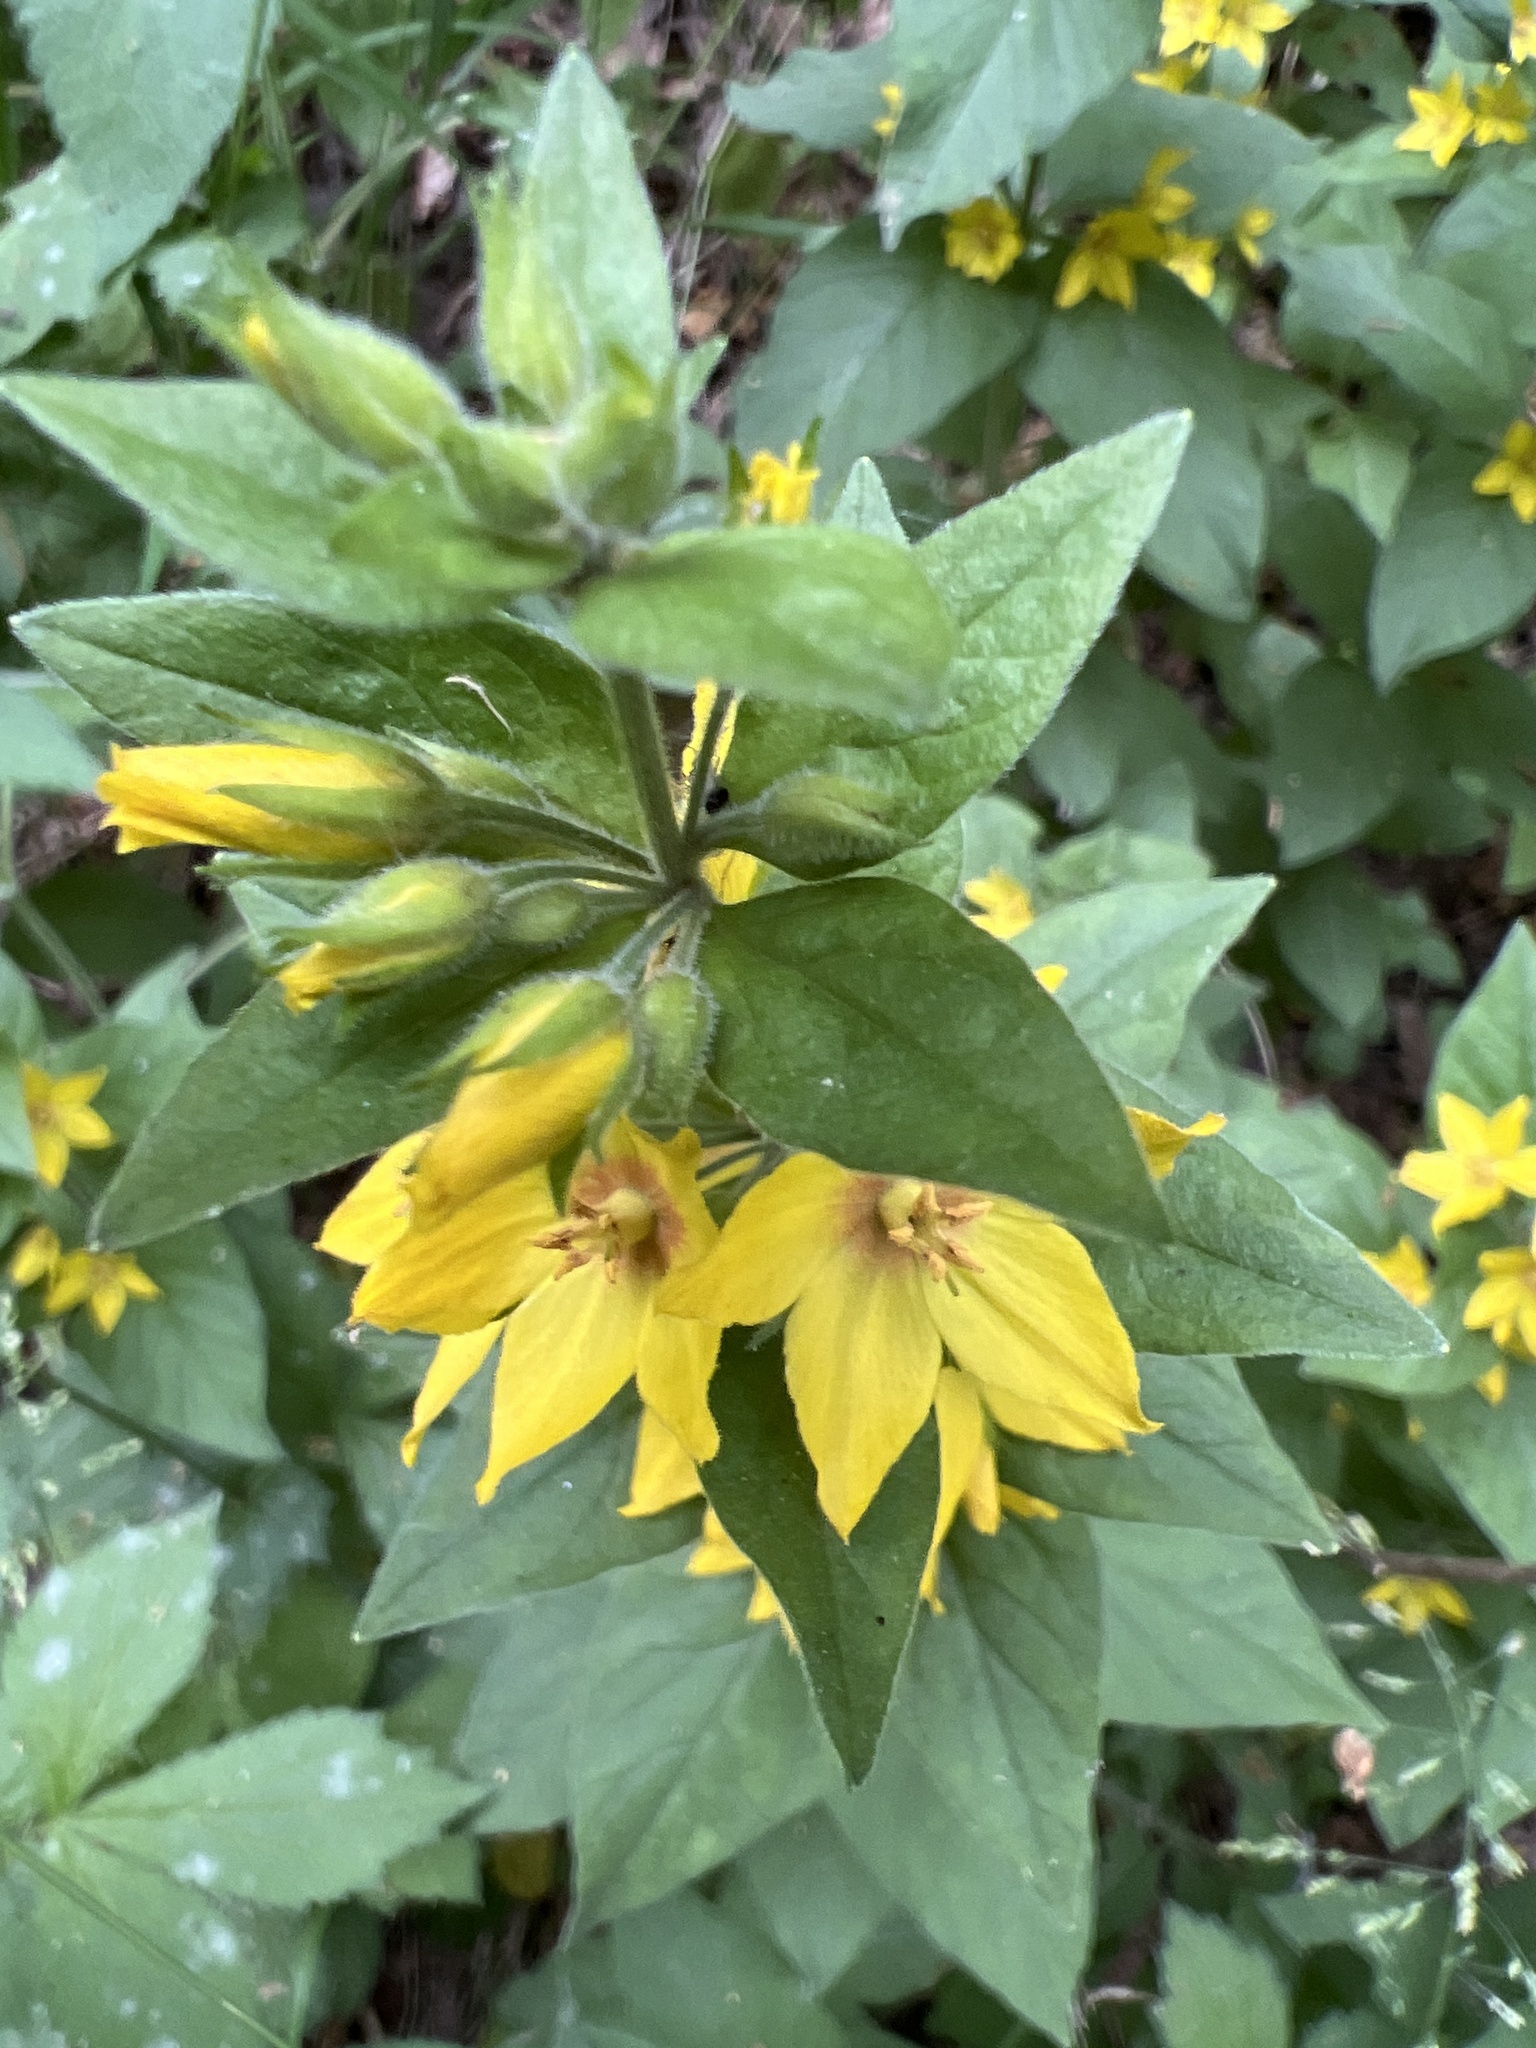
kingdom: Plantae
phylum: Tracheophyta
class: Magnoliopsida
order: Ericales
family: Primulaceae
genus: Lysimachia
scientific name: Lysimachia punctata
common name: Dotted loosestrife
